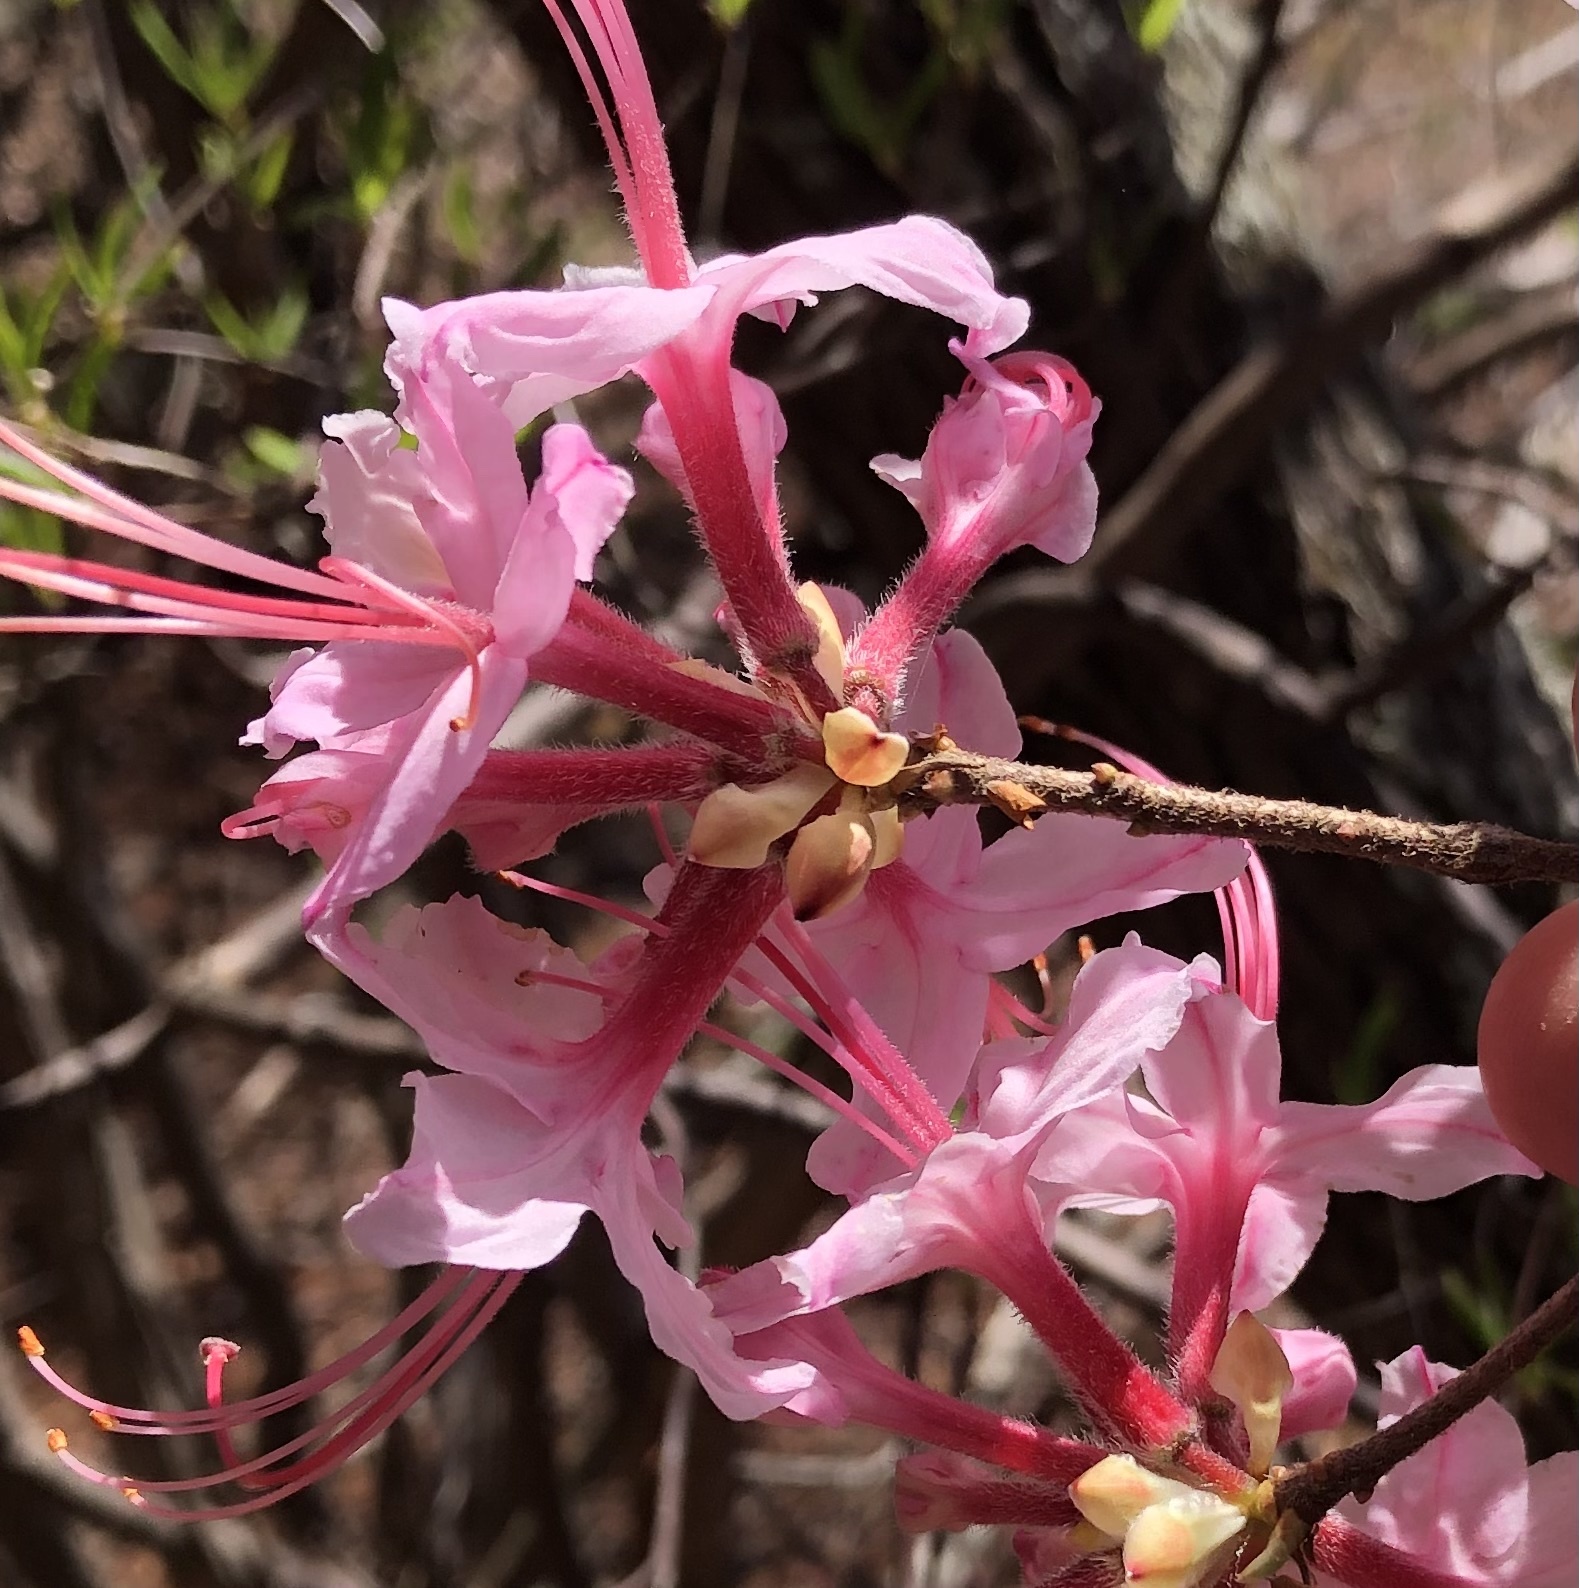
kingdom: Plantae
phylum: Tracheophyta
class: Magnoliopsida
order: Ericales
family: Ericaceae
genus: Rhododendron
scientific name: Rhododendron periclymenoides
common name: Election-pink
